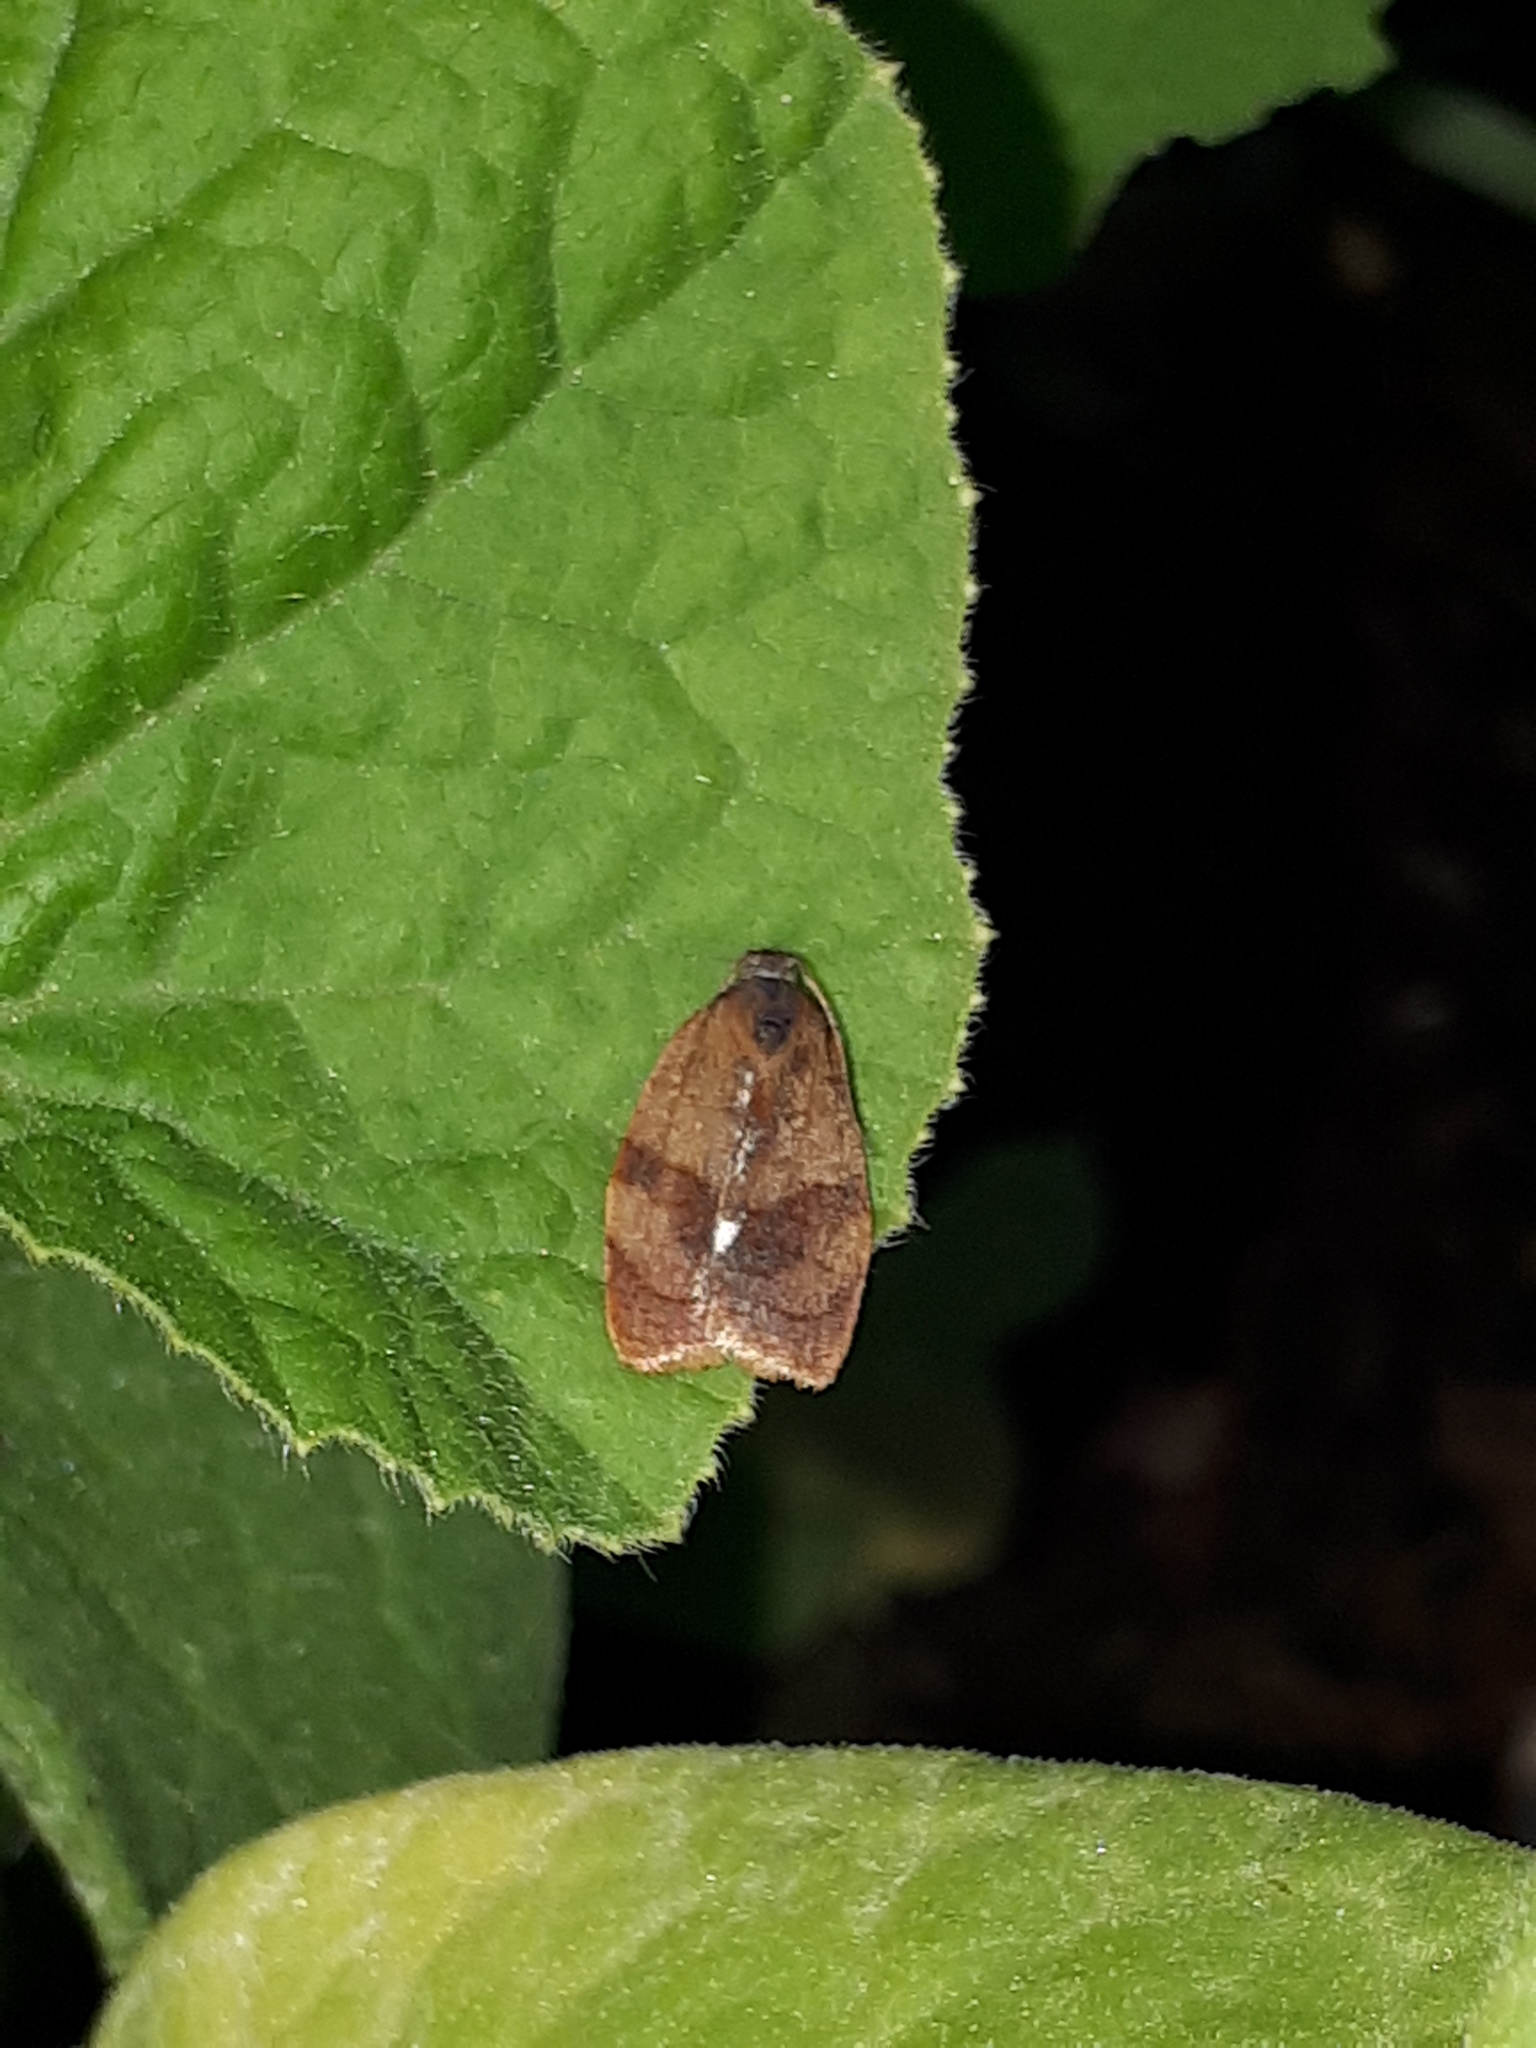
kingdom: Animalia
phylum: Arthropoda
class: Insecta
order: Lepidoptera
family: Tortricidae
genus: Cacoecimorpha
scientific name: Cacoecimorpha pronubana
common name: Carnation tortrix
